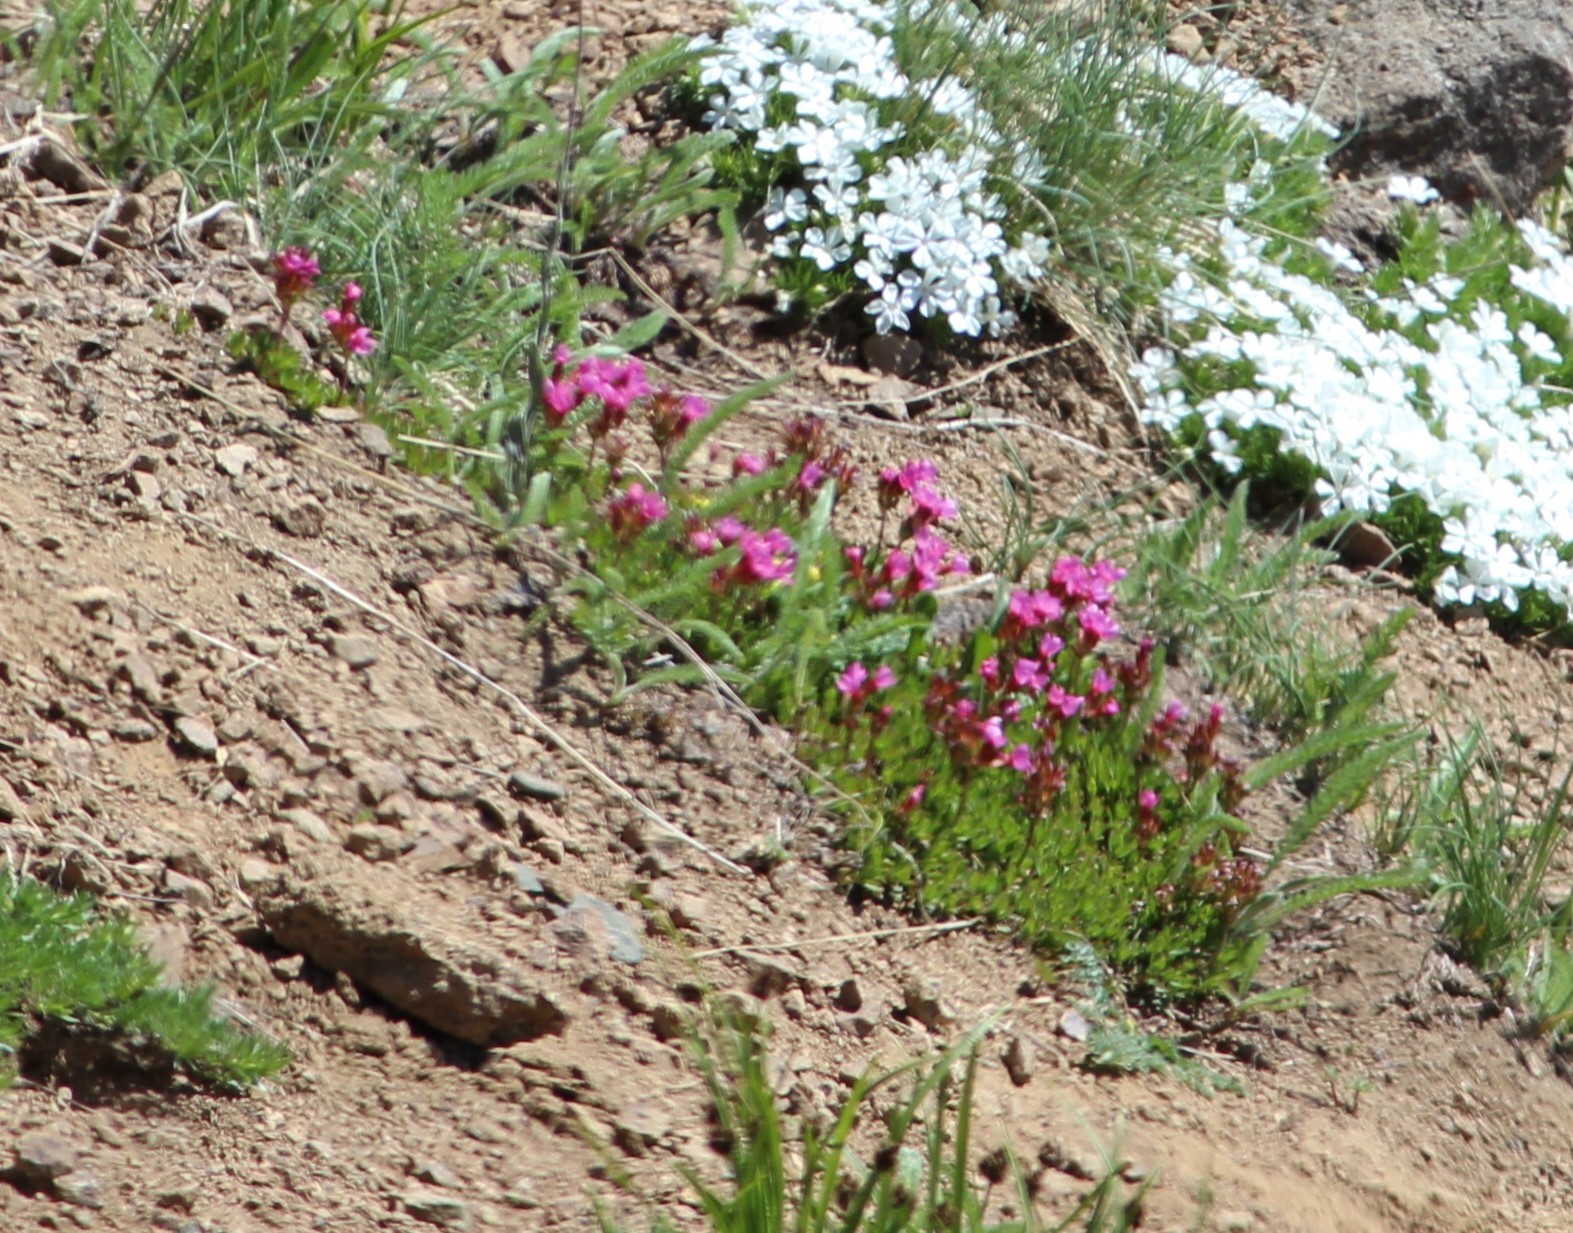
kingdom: Plantae
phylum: Tracheophyta
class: Magnoliopsida
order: Ericales
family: Primulaceae
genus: Androsace
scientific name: Androsace laevigata
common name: Cliff dwarf-primrose
